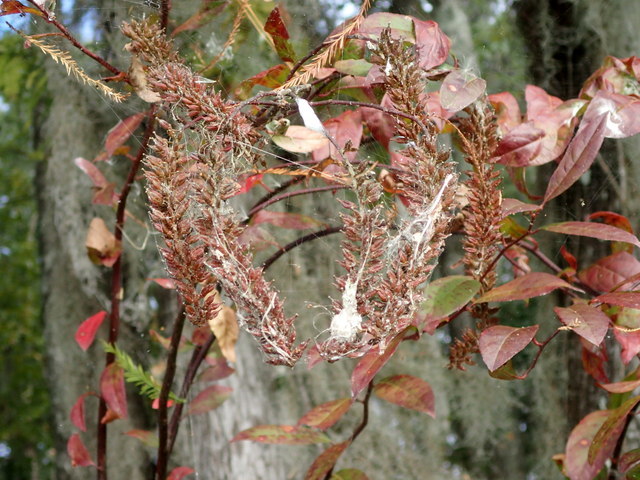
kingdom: Plantae
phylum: Tracheophyta
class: Magnoliopsida
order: Saxifragales
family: Iteaceae
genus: Itea
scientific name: Itea virginica
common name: Sweetspire
